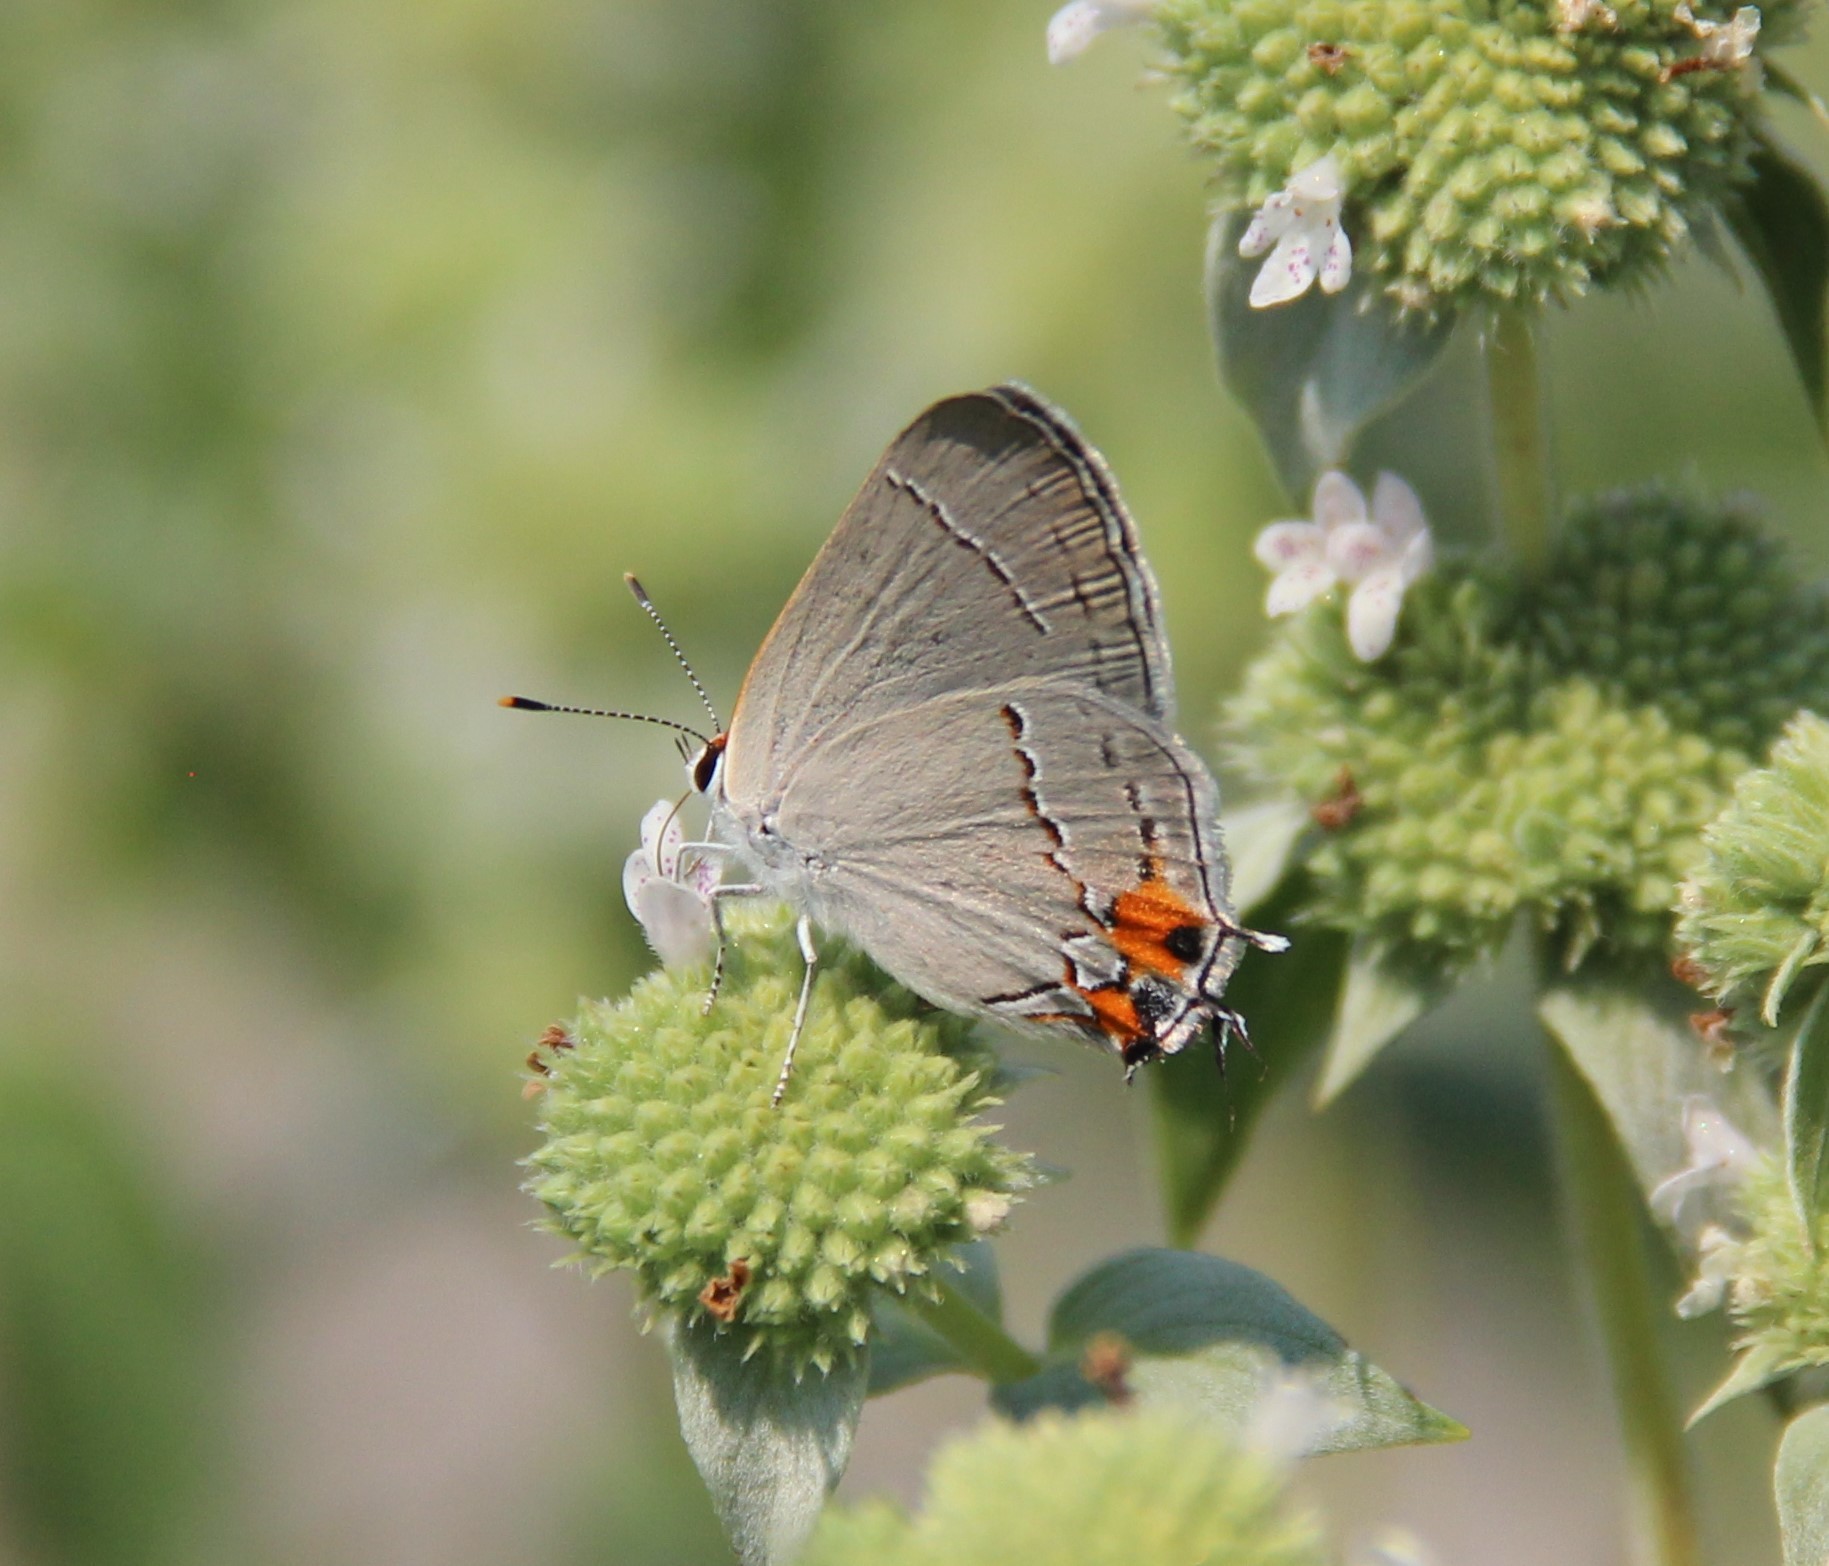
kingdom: Animalia
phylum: Arthropoda
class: Insecta
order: Lepidoptera
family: Lycaenidae
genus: Strymon
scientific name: Strymon melinus
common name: Gray hairstreak
